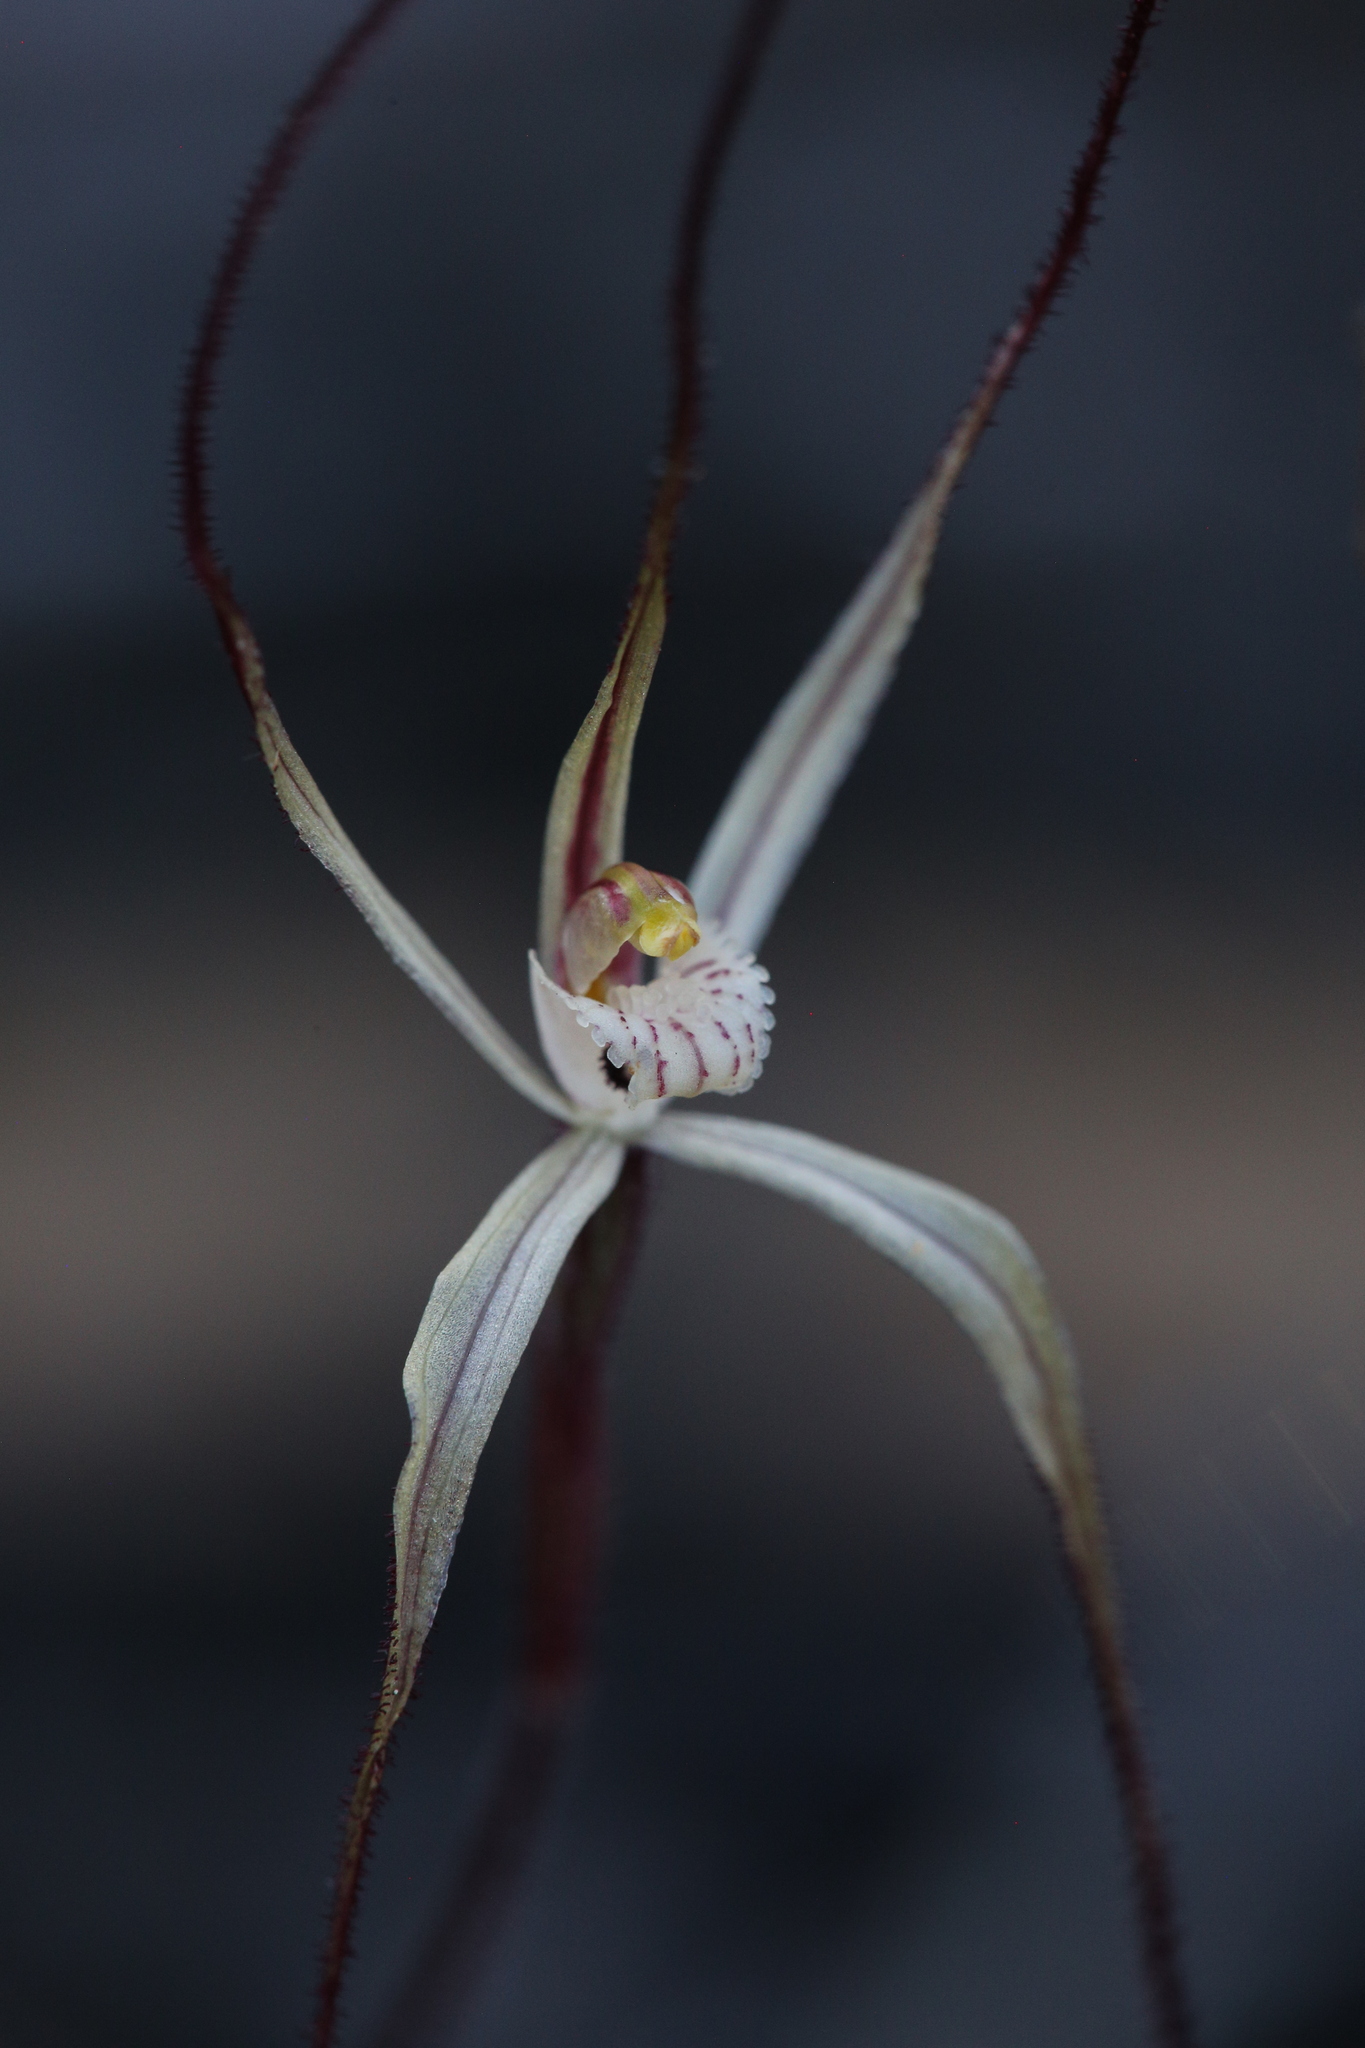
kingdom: Plantae
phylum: Tracheophyta
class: Liliopsida
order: Asparagales
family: Orchidaceae
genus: Caladenia
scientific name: Caladenia microchila
